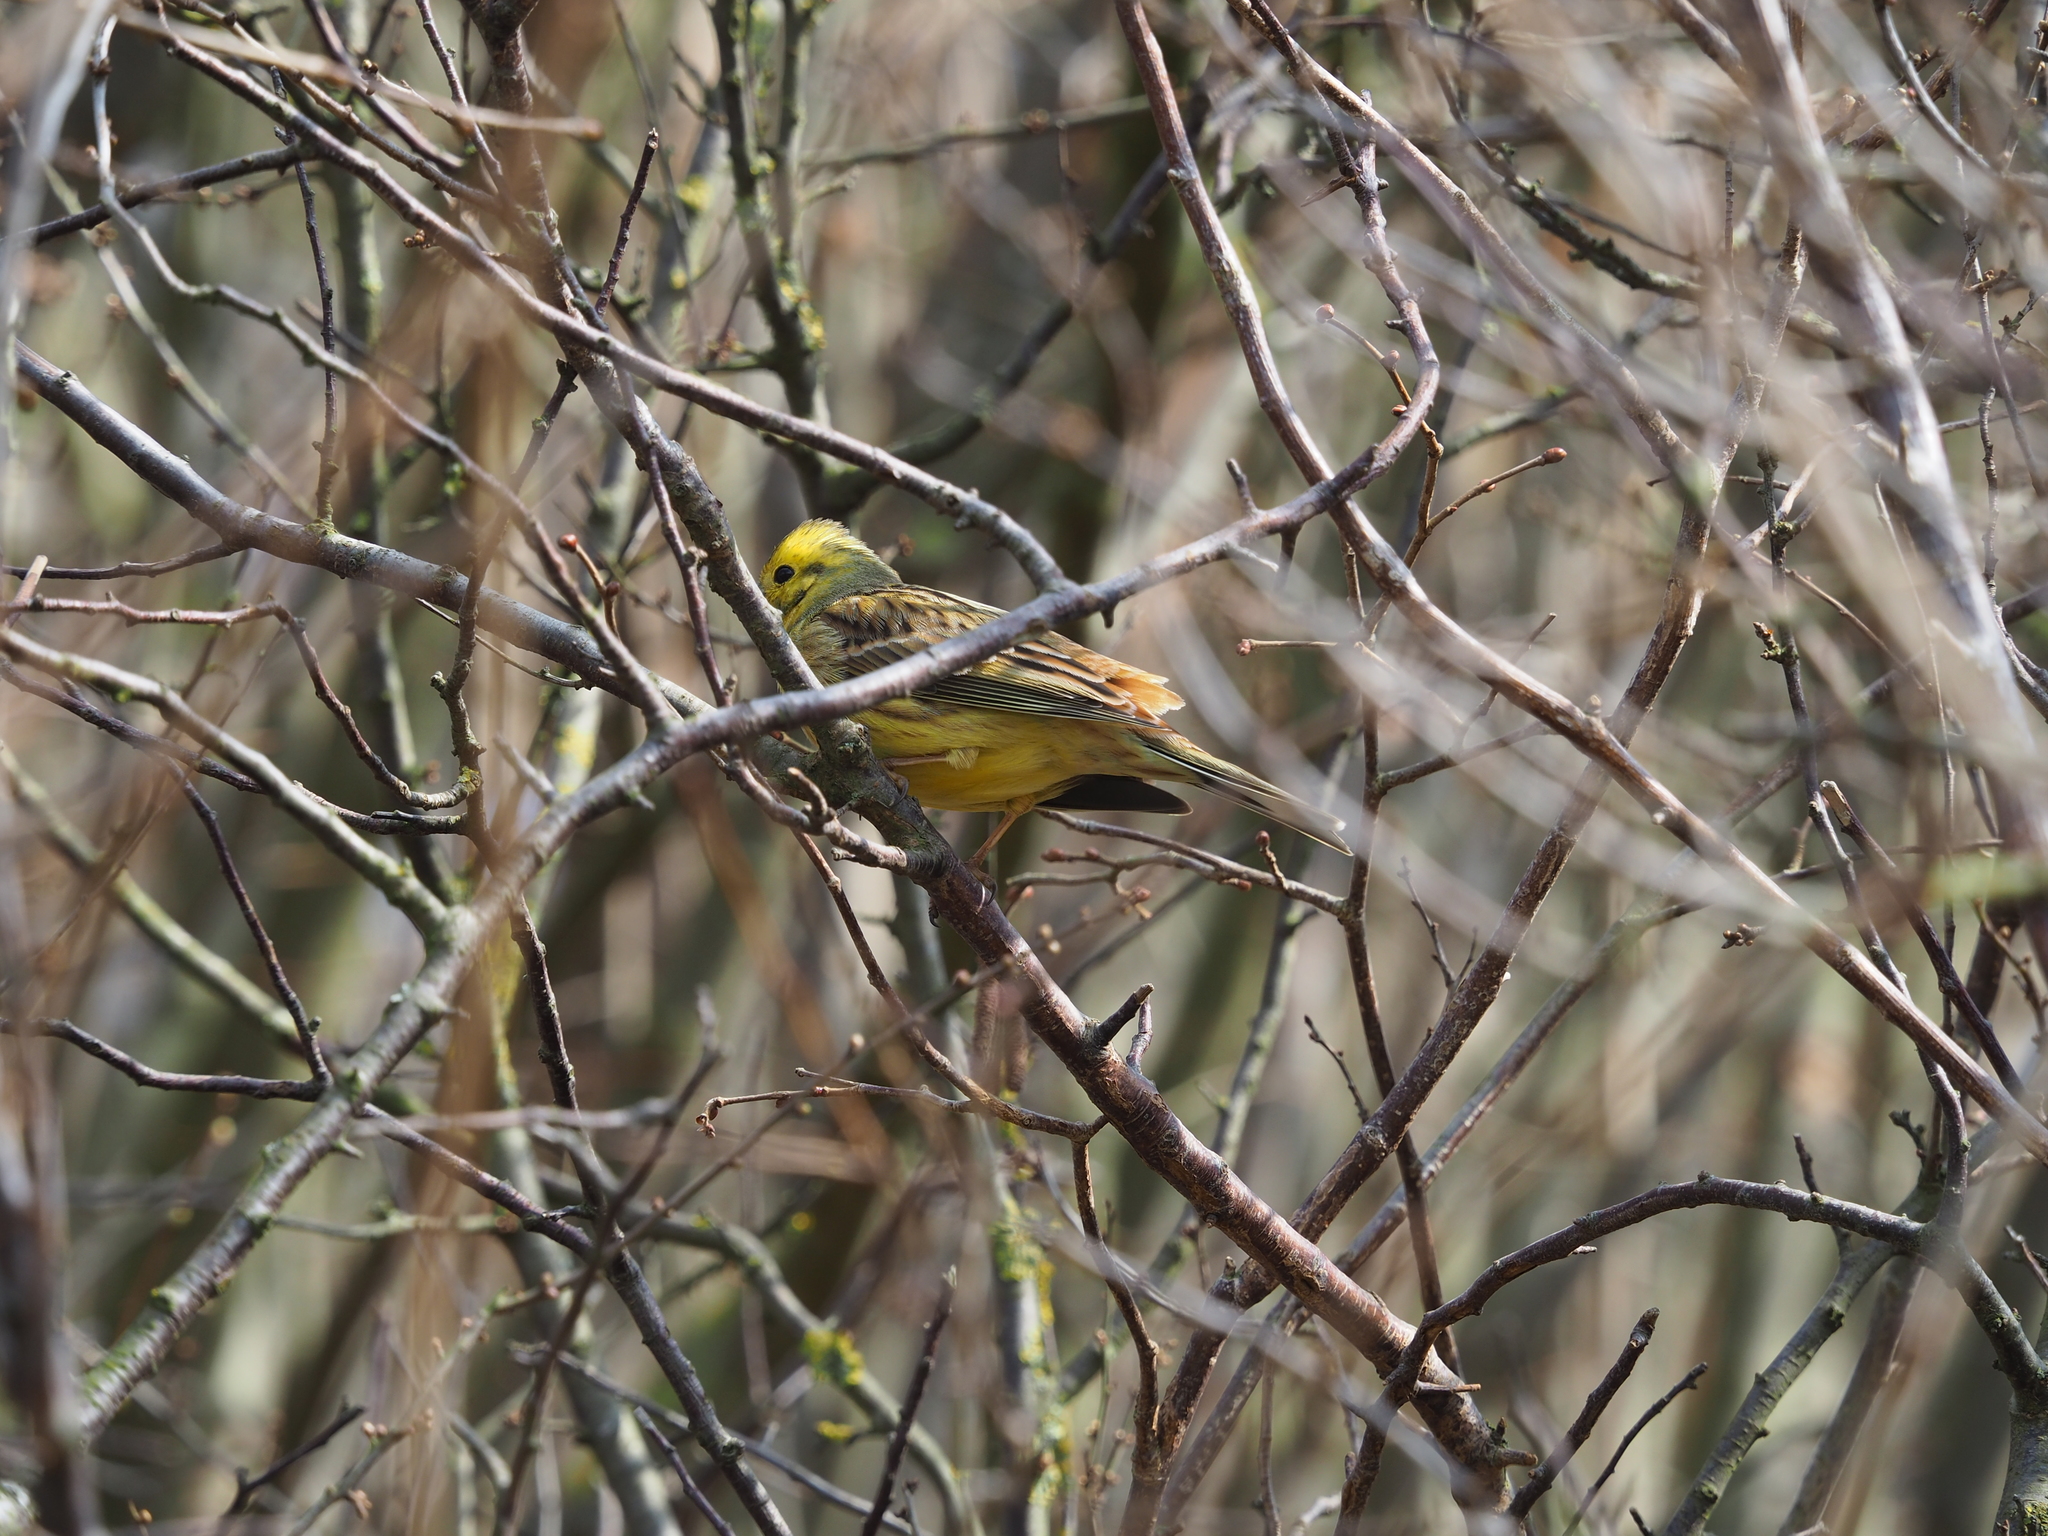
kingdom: Animalia
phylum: Chordata
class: Aves
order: Passeriformes
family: Emberizidae
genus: Emberiza
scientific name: Emberiza citrinella
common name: Yellowhammer
